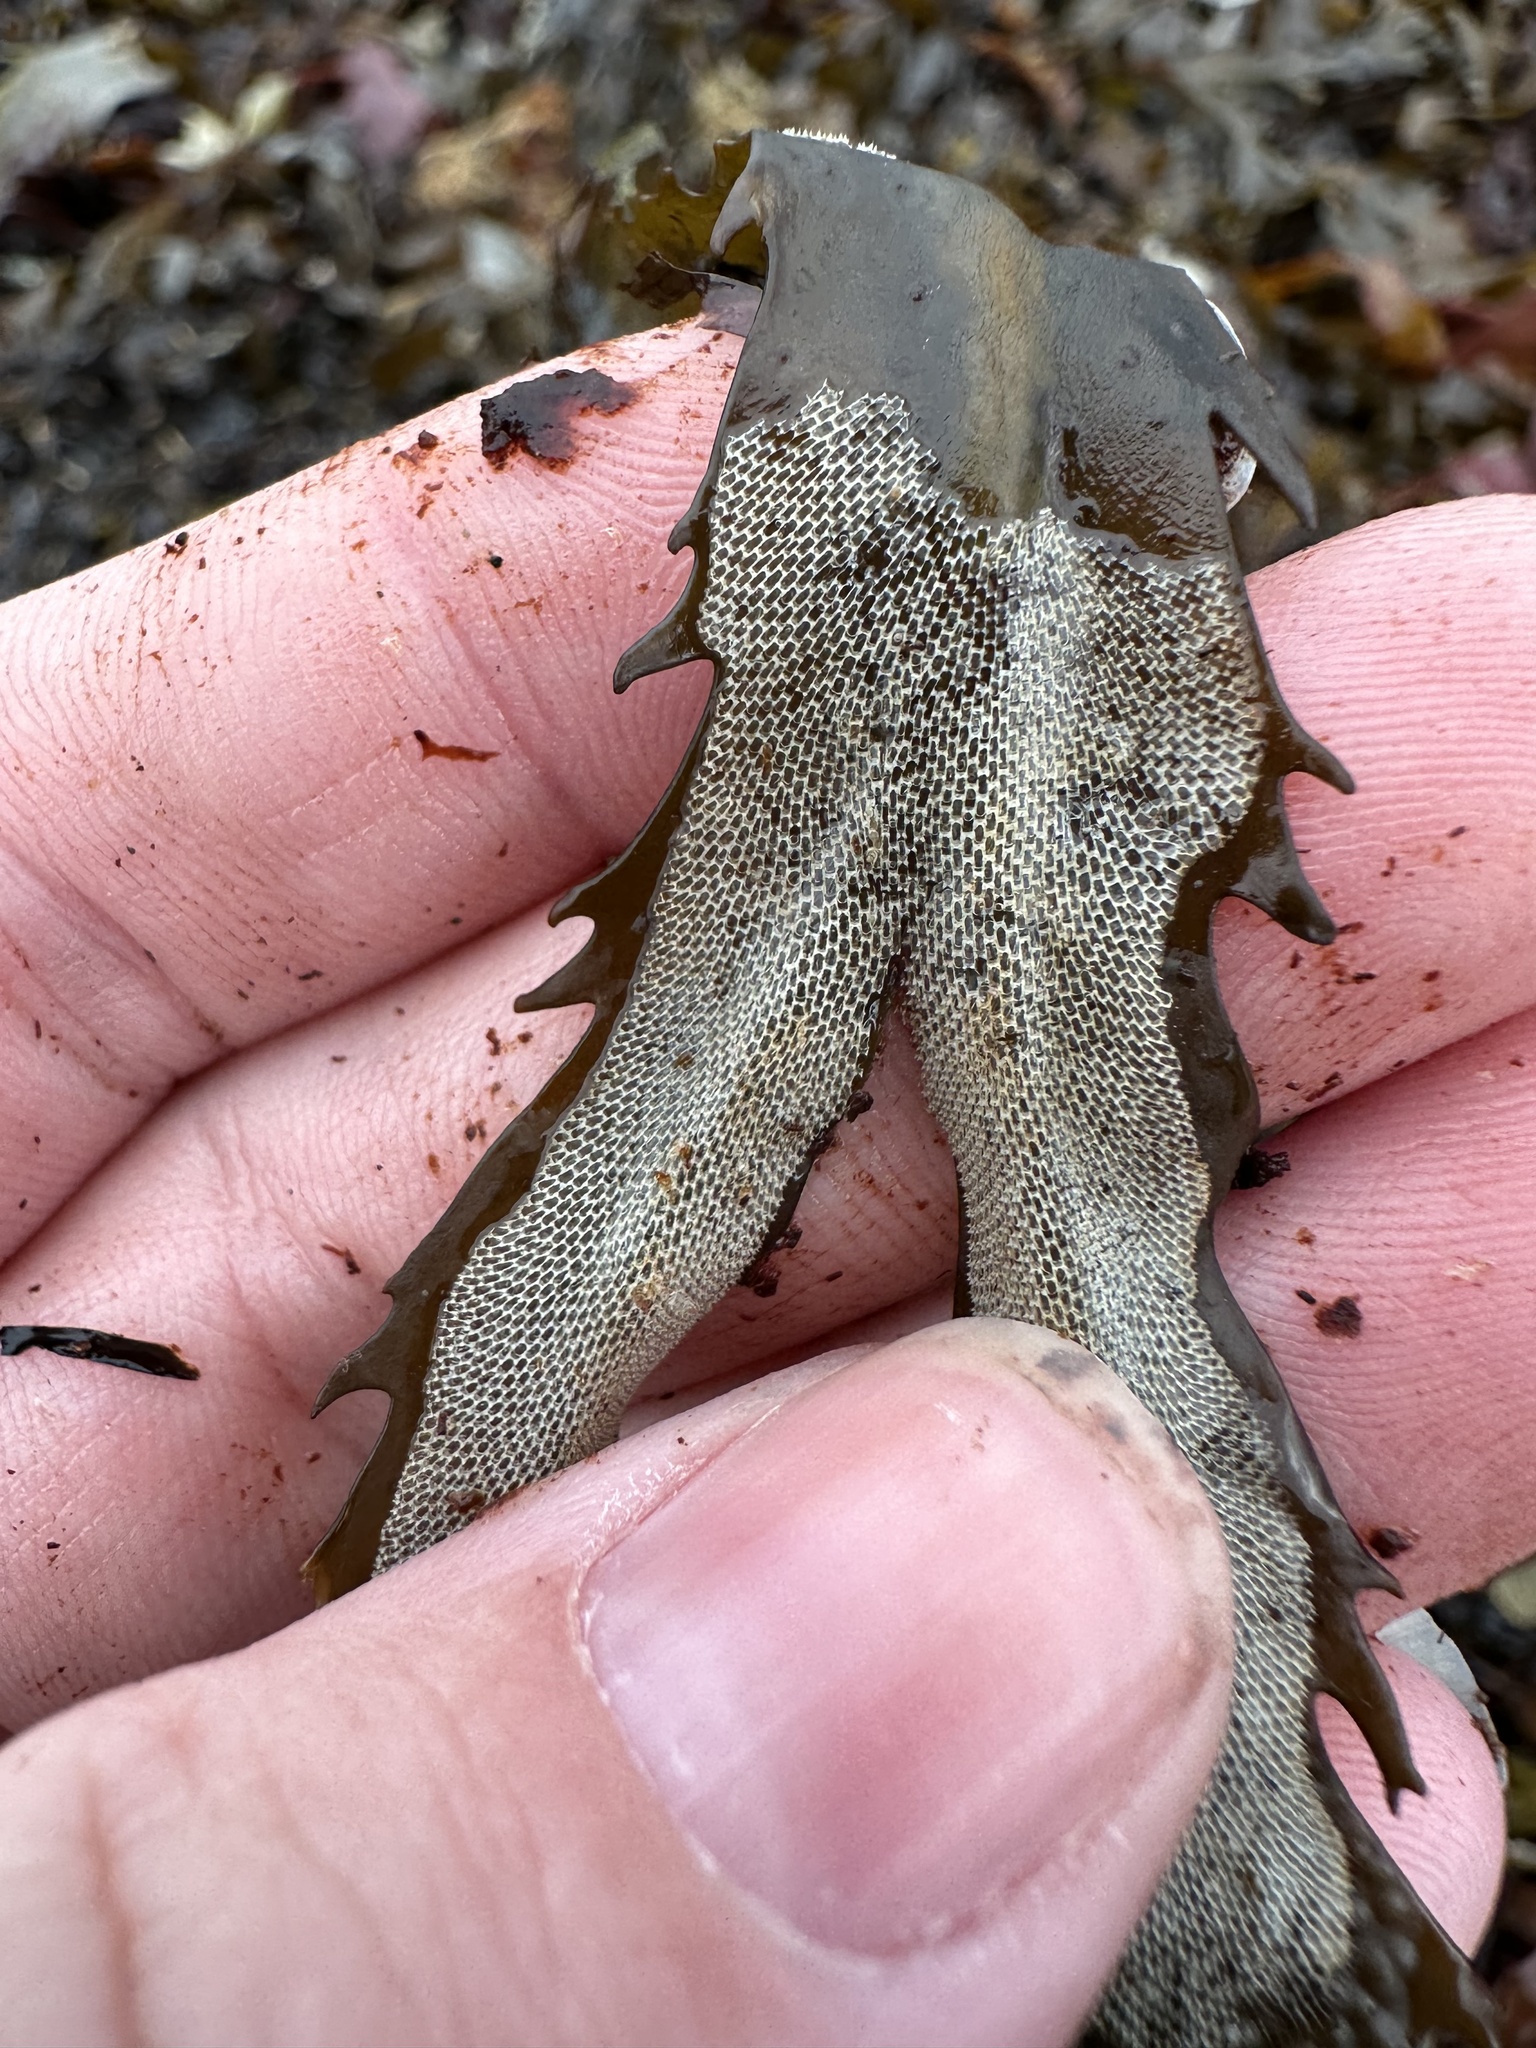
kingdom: Animalia
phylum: Bryozoa
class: Gymnolaemata
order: Cheilostomatida
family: Membraniporidae
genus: Membranipora
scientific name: Membranipora membranacea
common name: Sea mat
